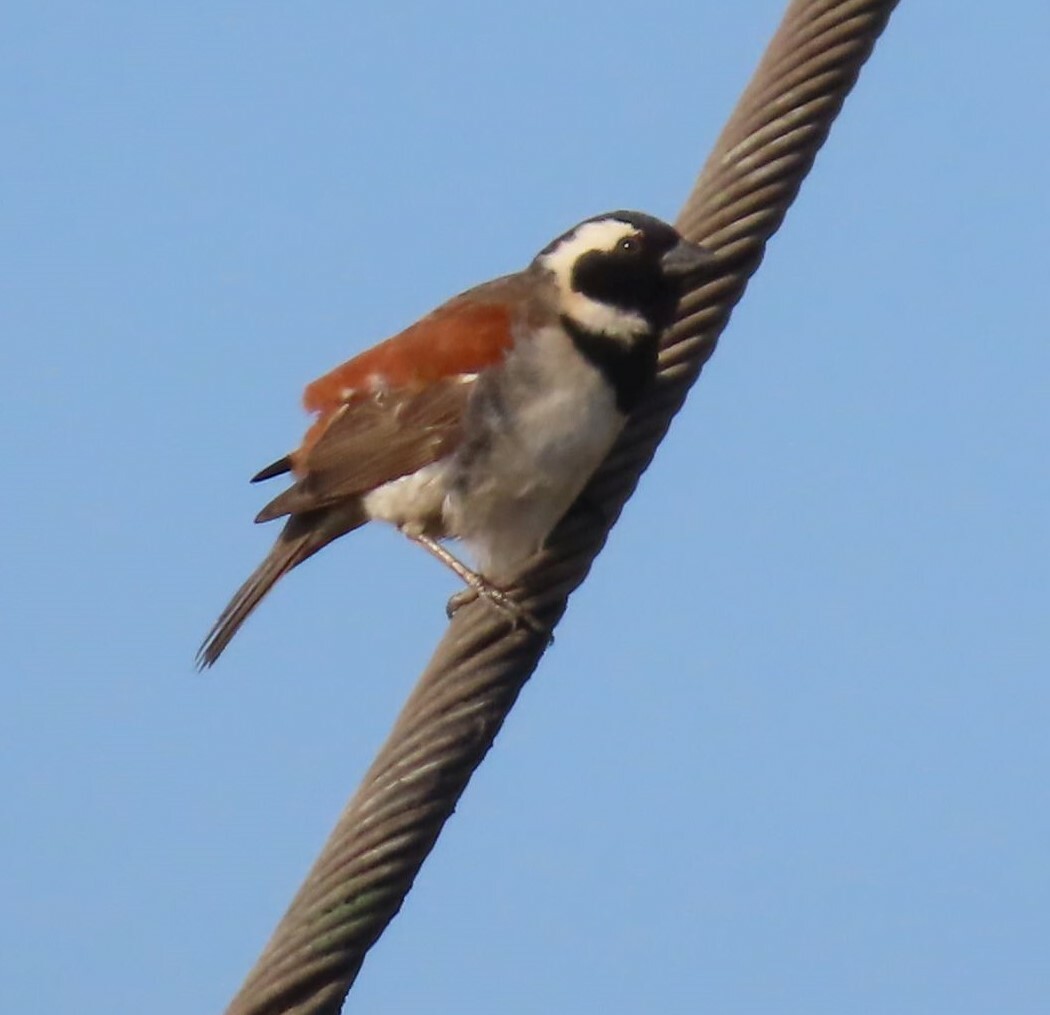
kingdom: Animalia
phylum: Chordata
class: Aves
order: Passeriformes
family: Passeridae
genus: Passer
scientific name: Passer melanurus
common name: Cape sparrow
